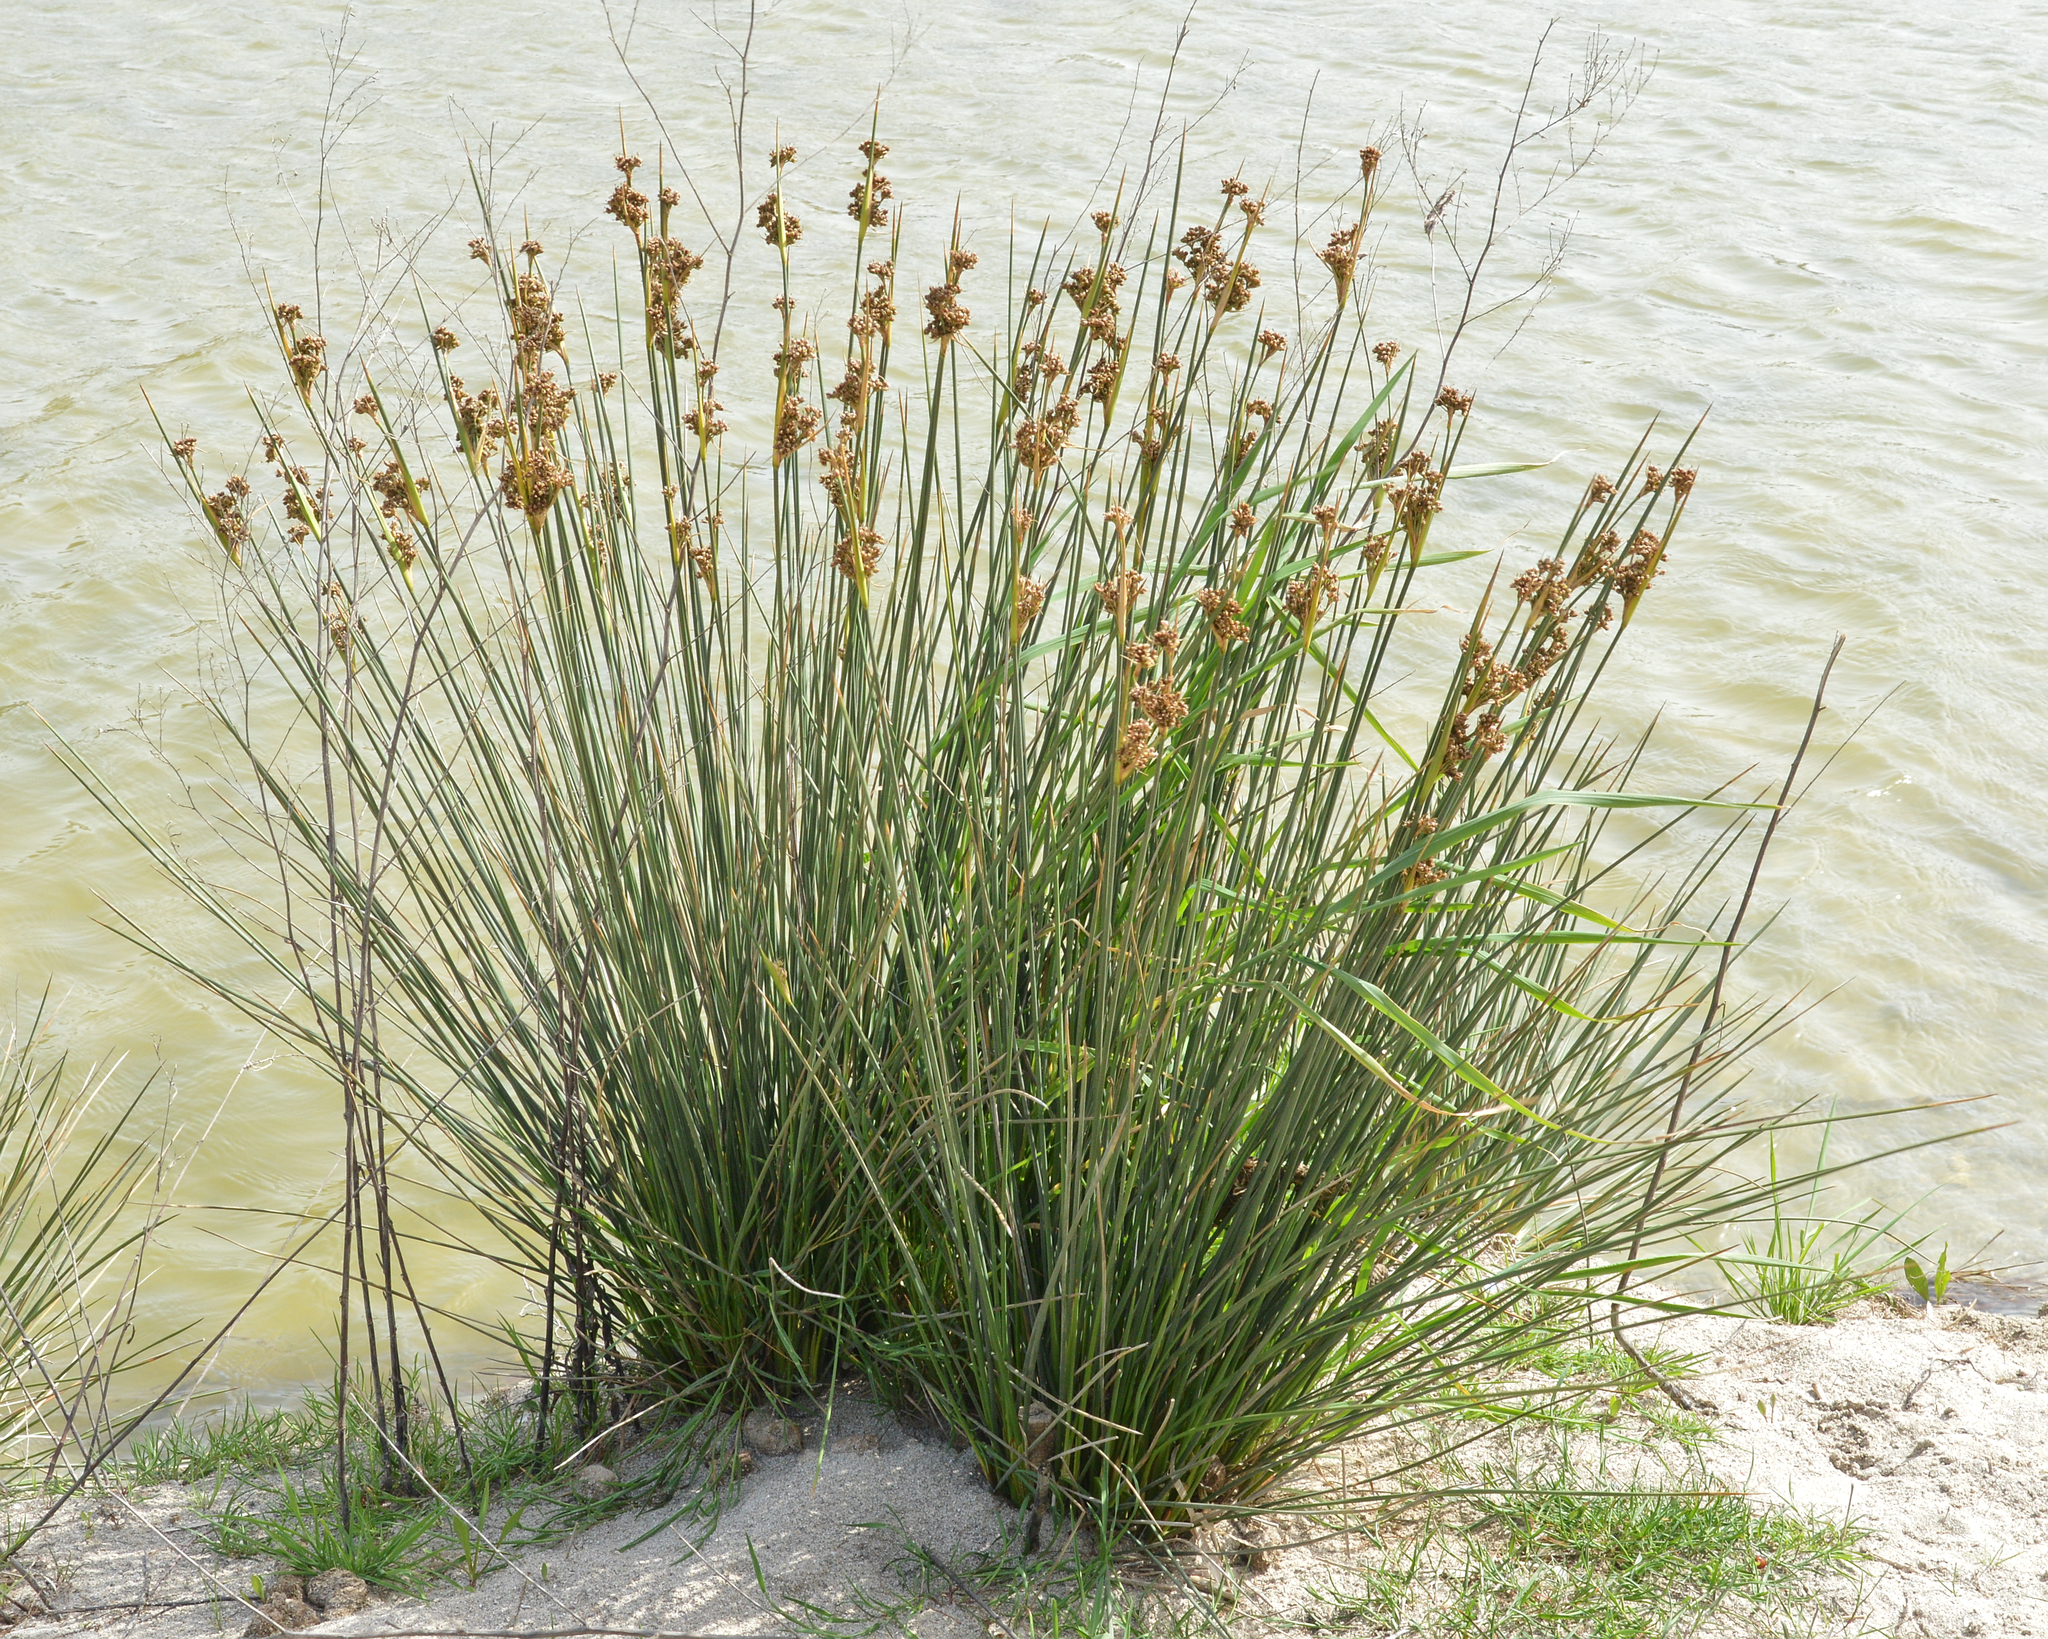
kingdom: Plantae
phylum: Tracheophyta
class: Liliopsida
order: Poales
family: Juncaceae
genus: Juncus
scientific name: Juncus acutus
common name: Sharp rush
